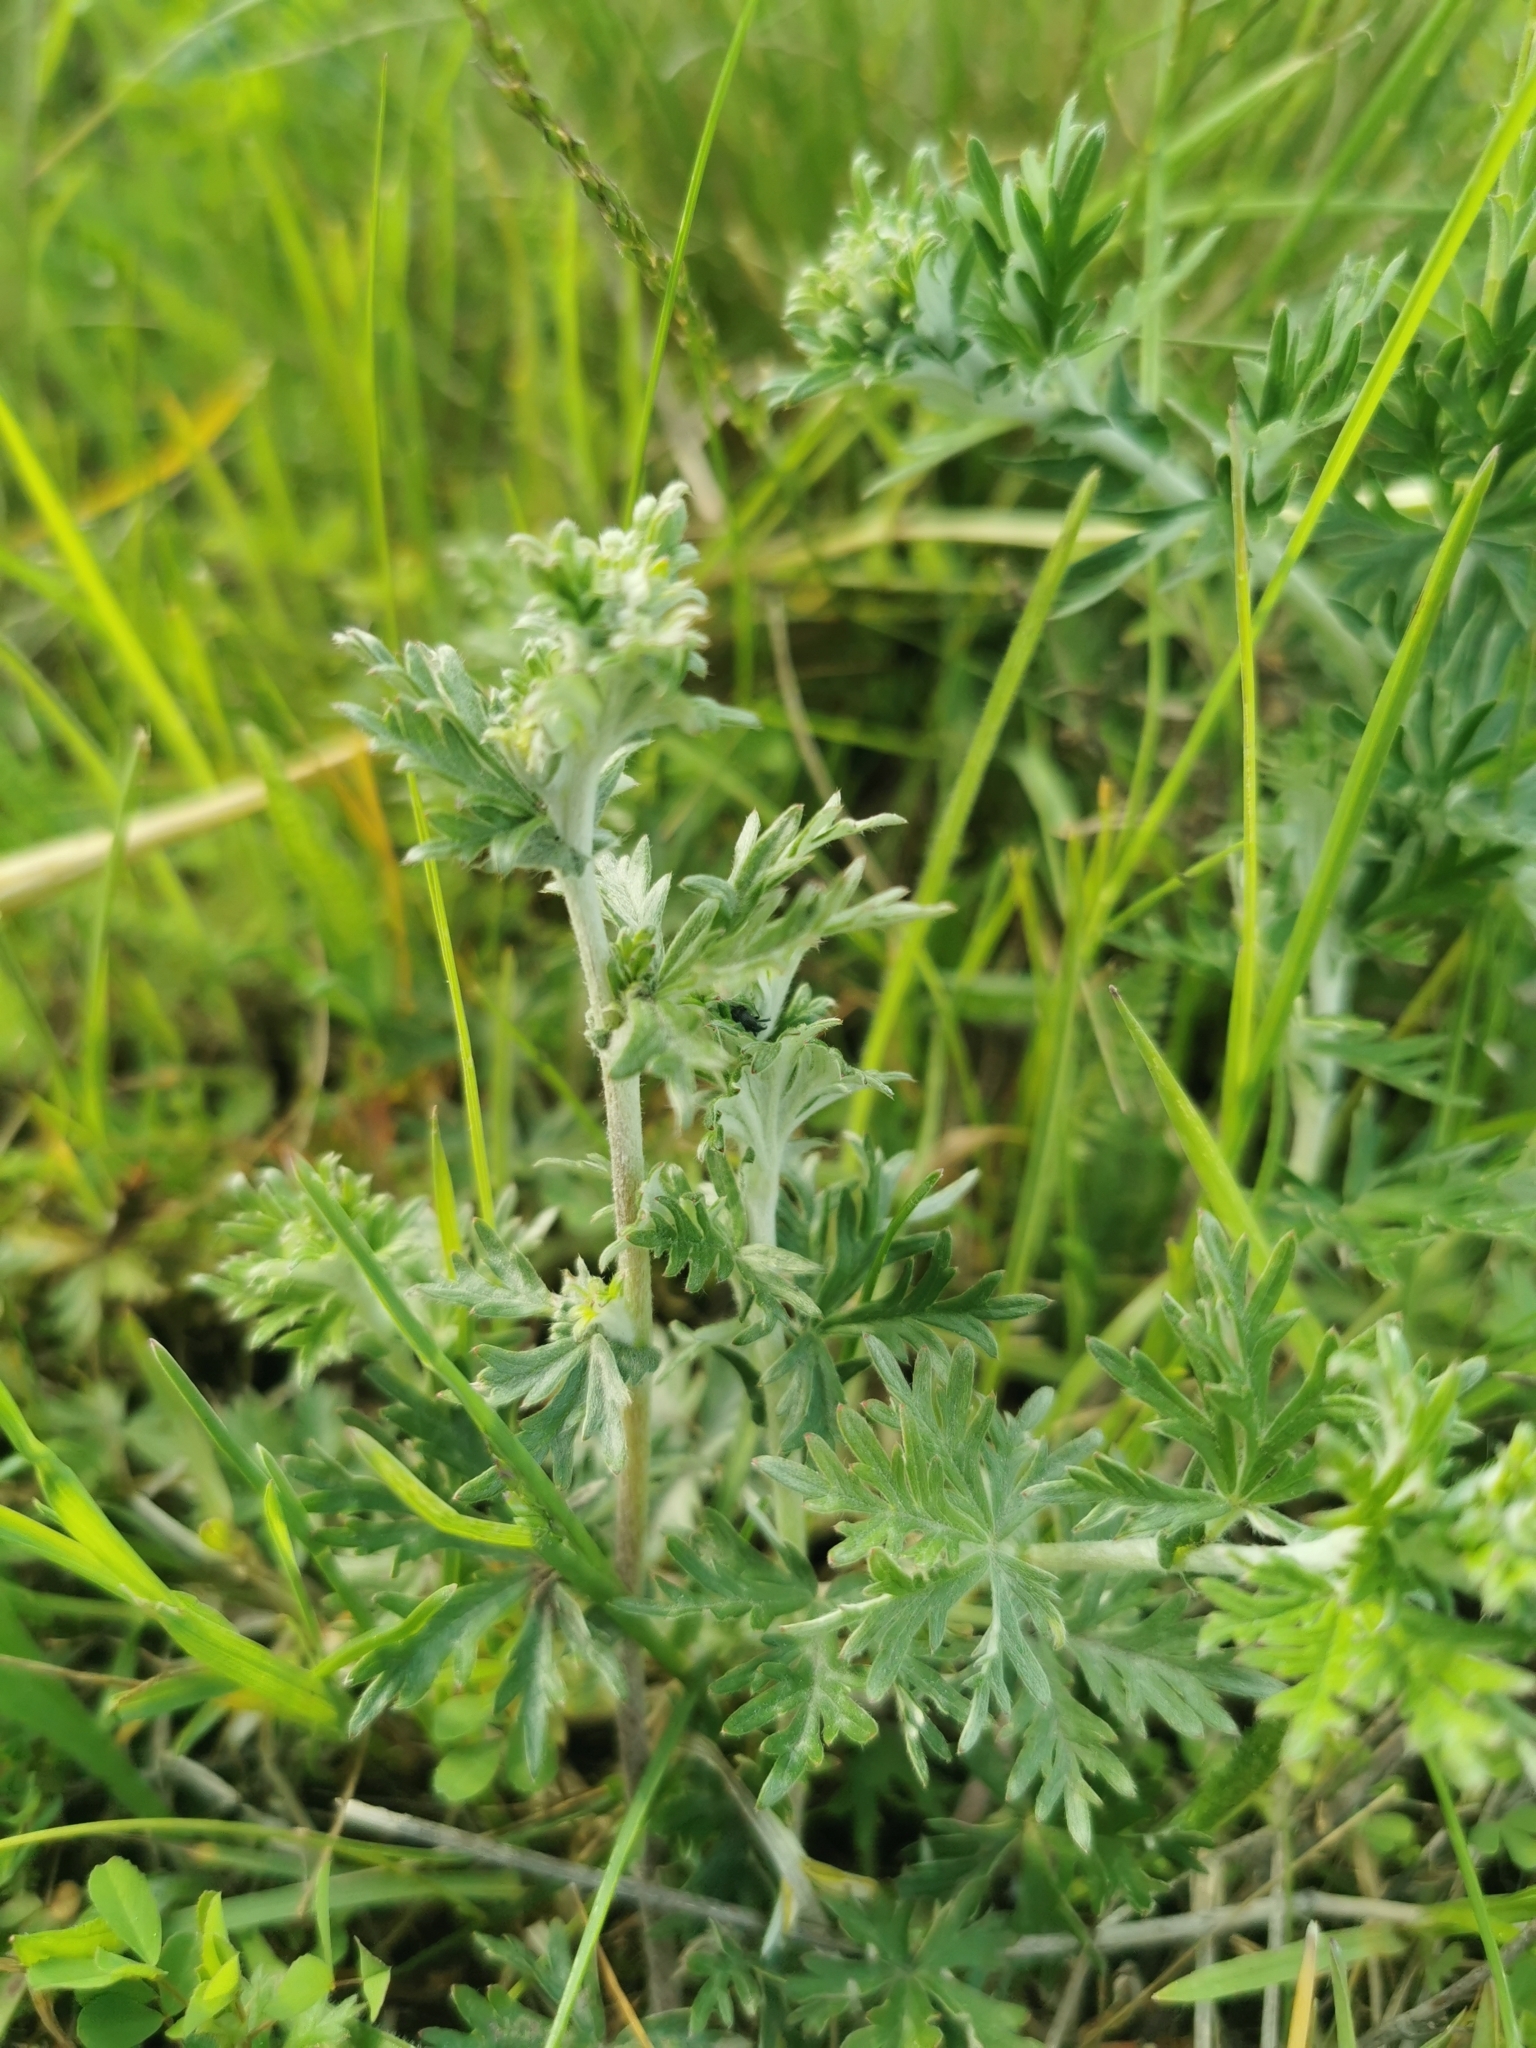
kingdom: Plantae
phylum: Tracheophyta
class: Magnoliopsida
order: Asterales
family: Asteraceae
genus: Artemisia
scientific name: Artemisia absinthium
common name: Wormwood
